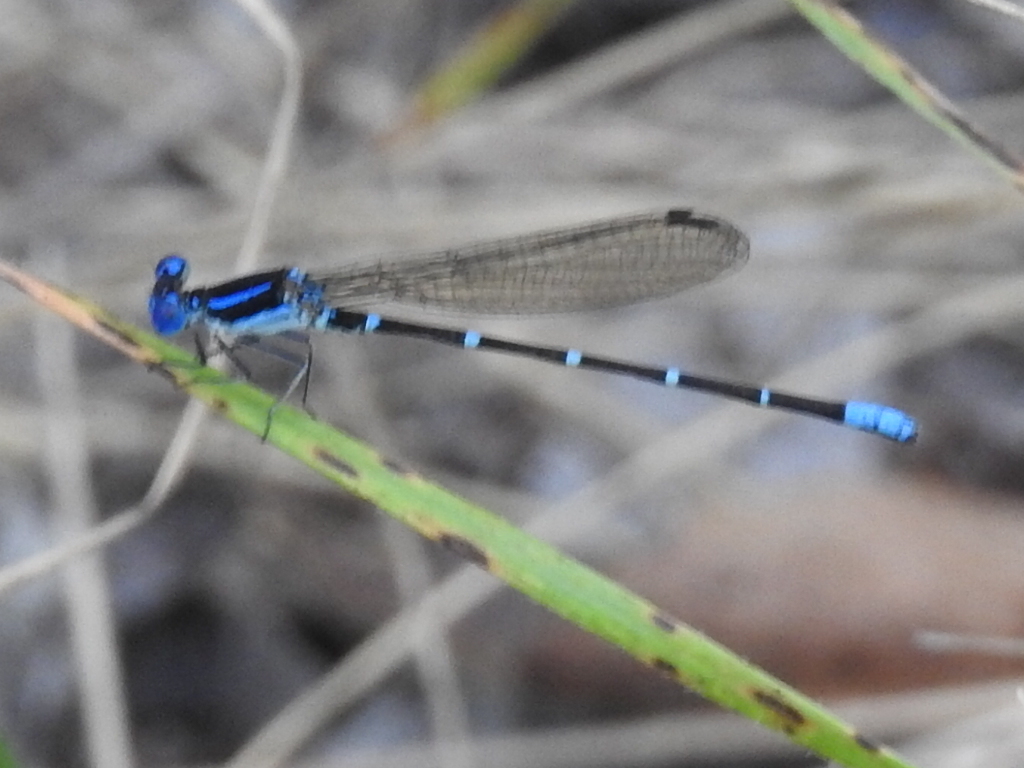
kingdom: Animalia
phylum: Arthropoda
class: Insecta
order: Odonata
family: Coenagrionidae
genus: Argia
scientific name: Argia sedula
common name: Blue-ringed dancer
